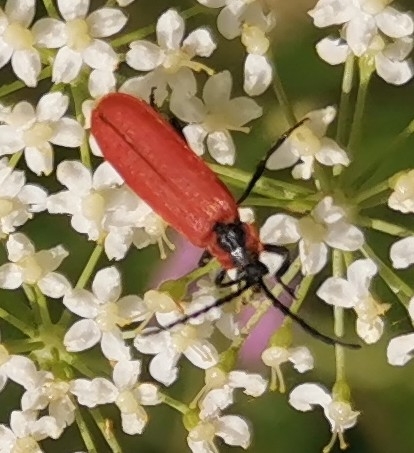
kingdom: Animalia
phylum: Arthropoda
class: Insecta
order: Coleoptera
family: Lycidae
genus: Lygistopterus
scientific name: Lygistopterus sanguineus
